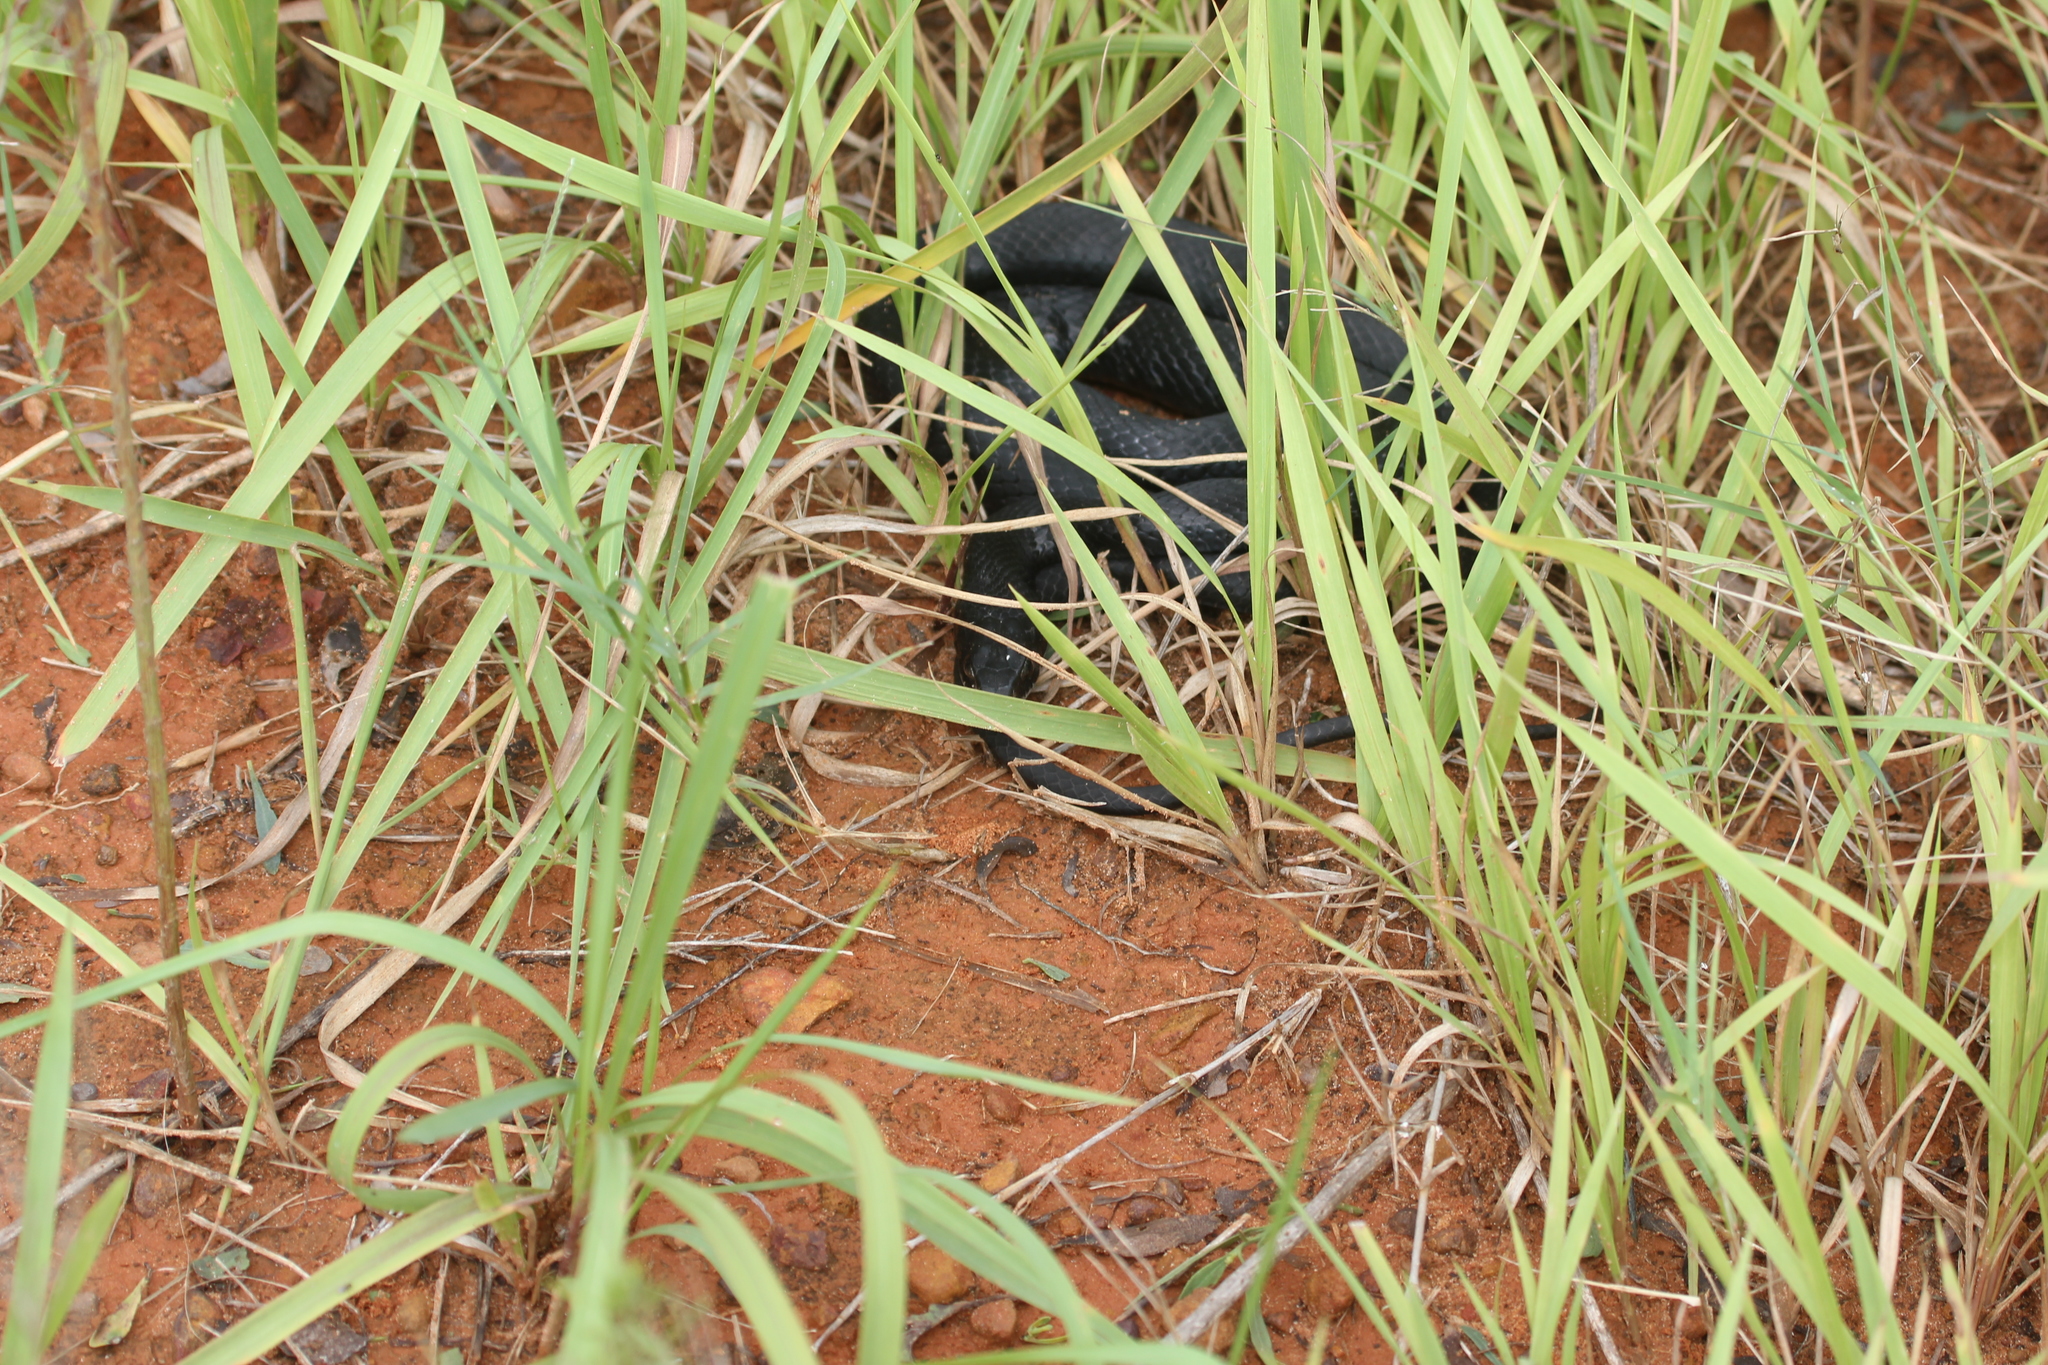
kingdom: Animalia
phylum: Chordata
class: Squamata
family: Colubridae
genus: Coluber
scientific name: Coluber constrictor
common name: Eastern racer
